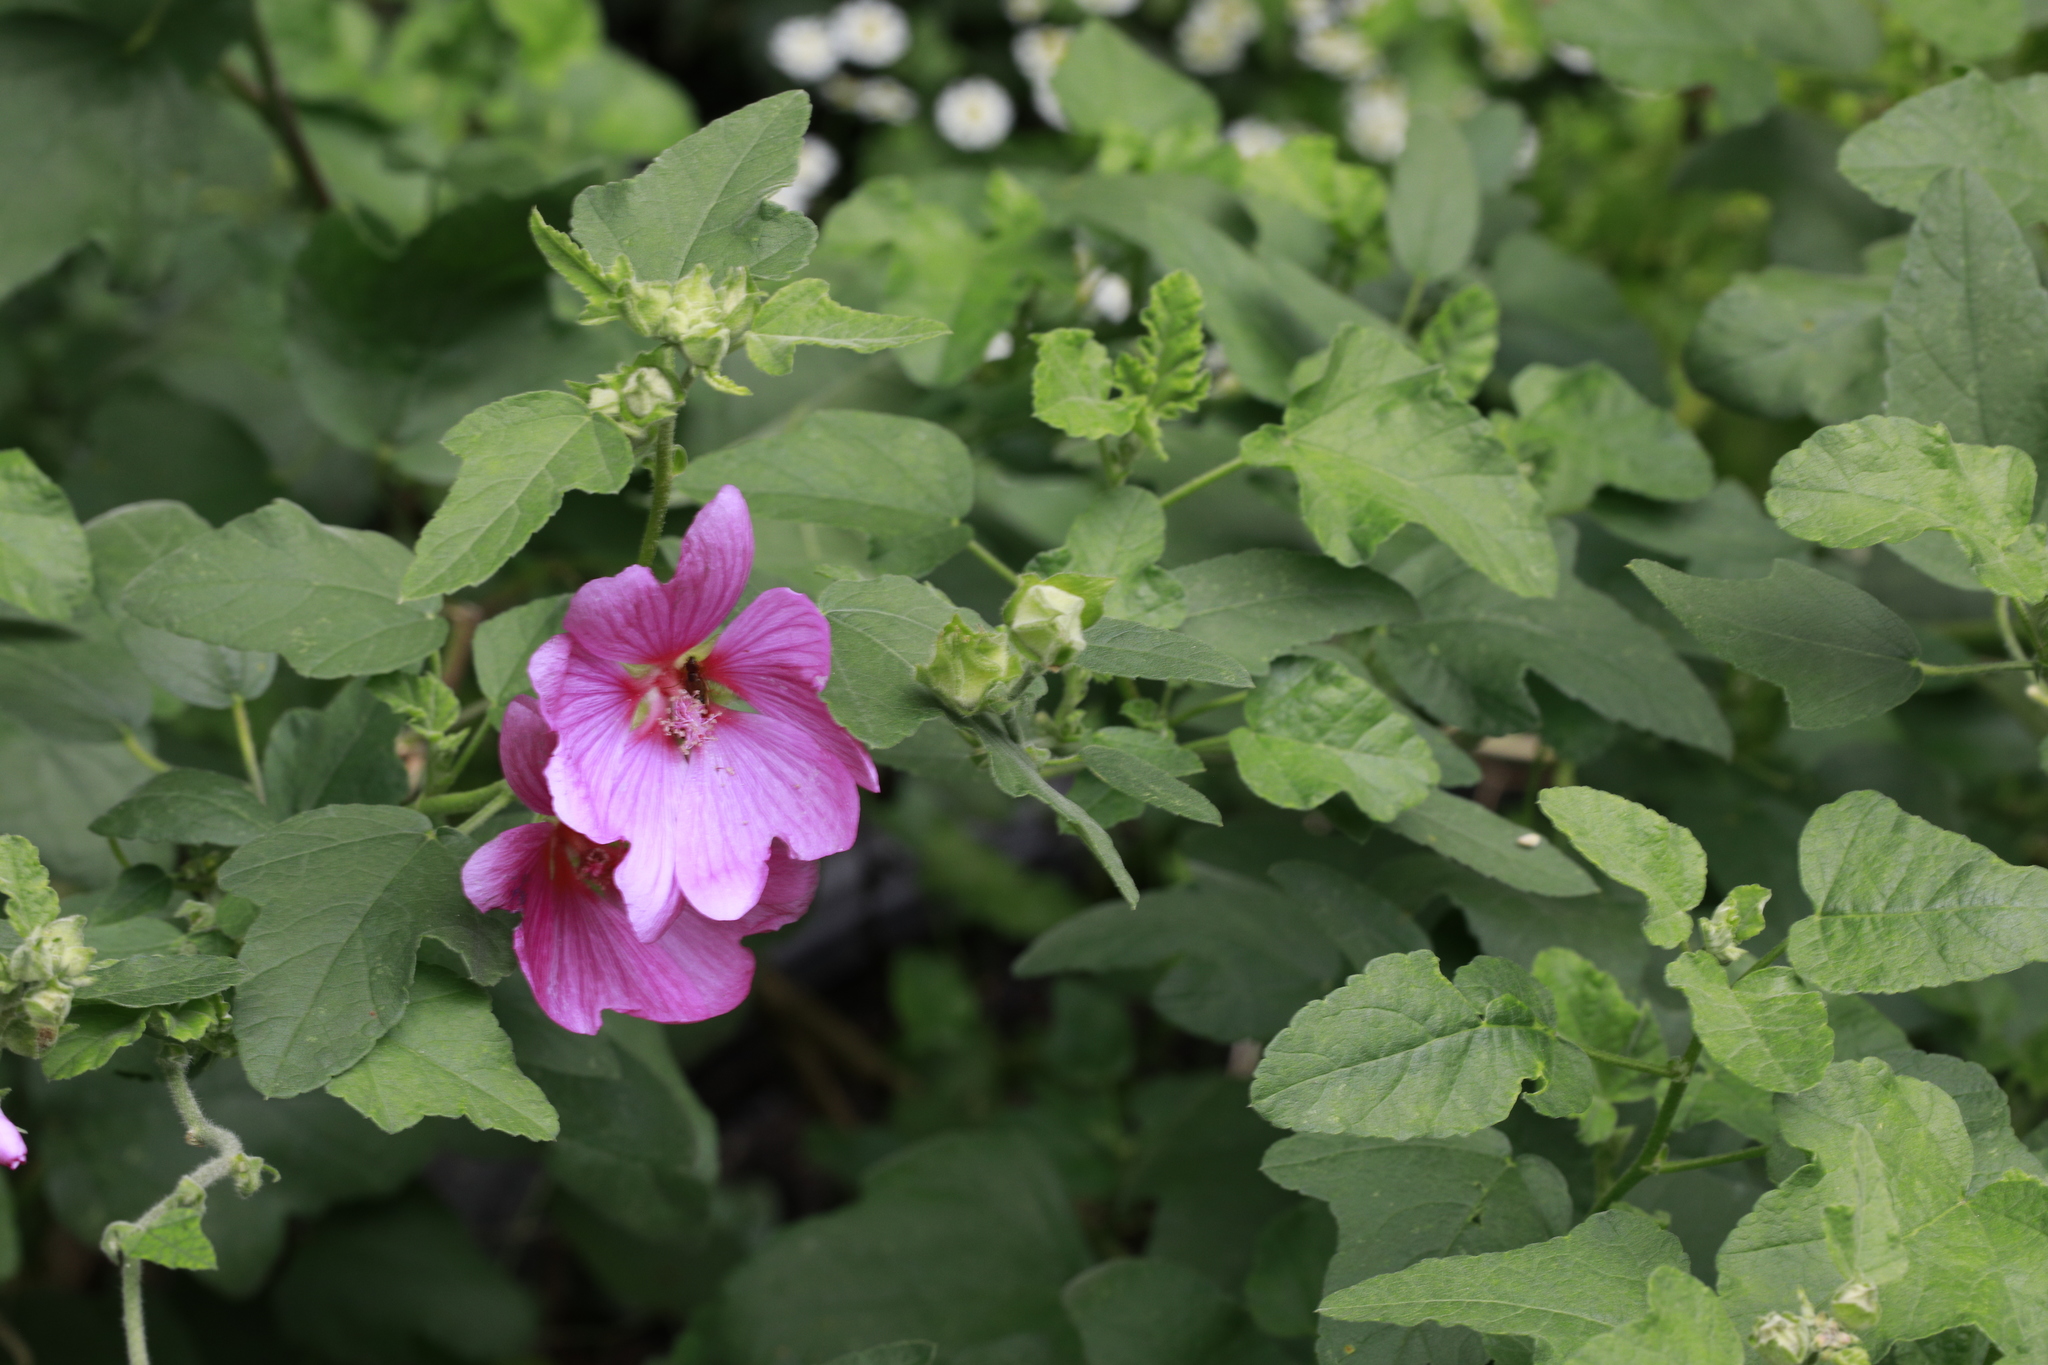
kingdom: Plantae
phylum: Tracheophyta
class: Magnoliopsida
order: Malvales
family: Malvaceae
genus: Malva
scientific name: Malva clementii
